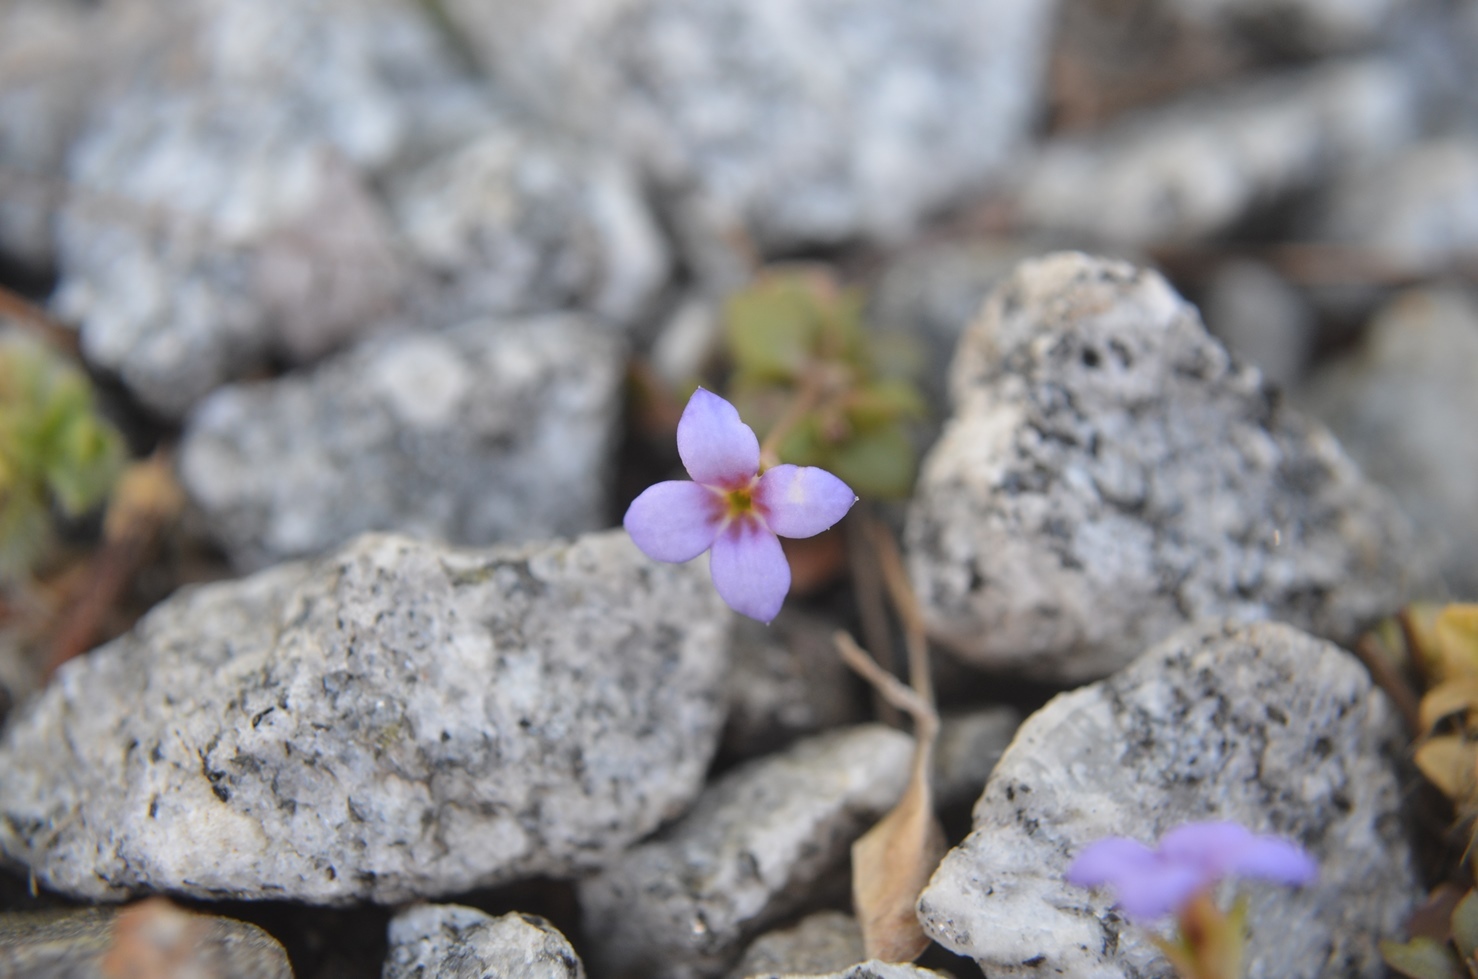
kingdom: Plantae
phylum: Tracheophyta
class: Magnoliopsida
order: Gentianales
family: Rubiaceae
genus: Houstonia
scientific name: Houstonia pusilla
